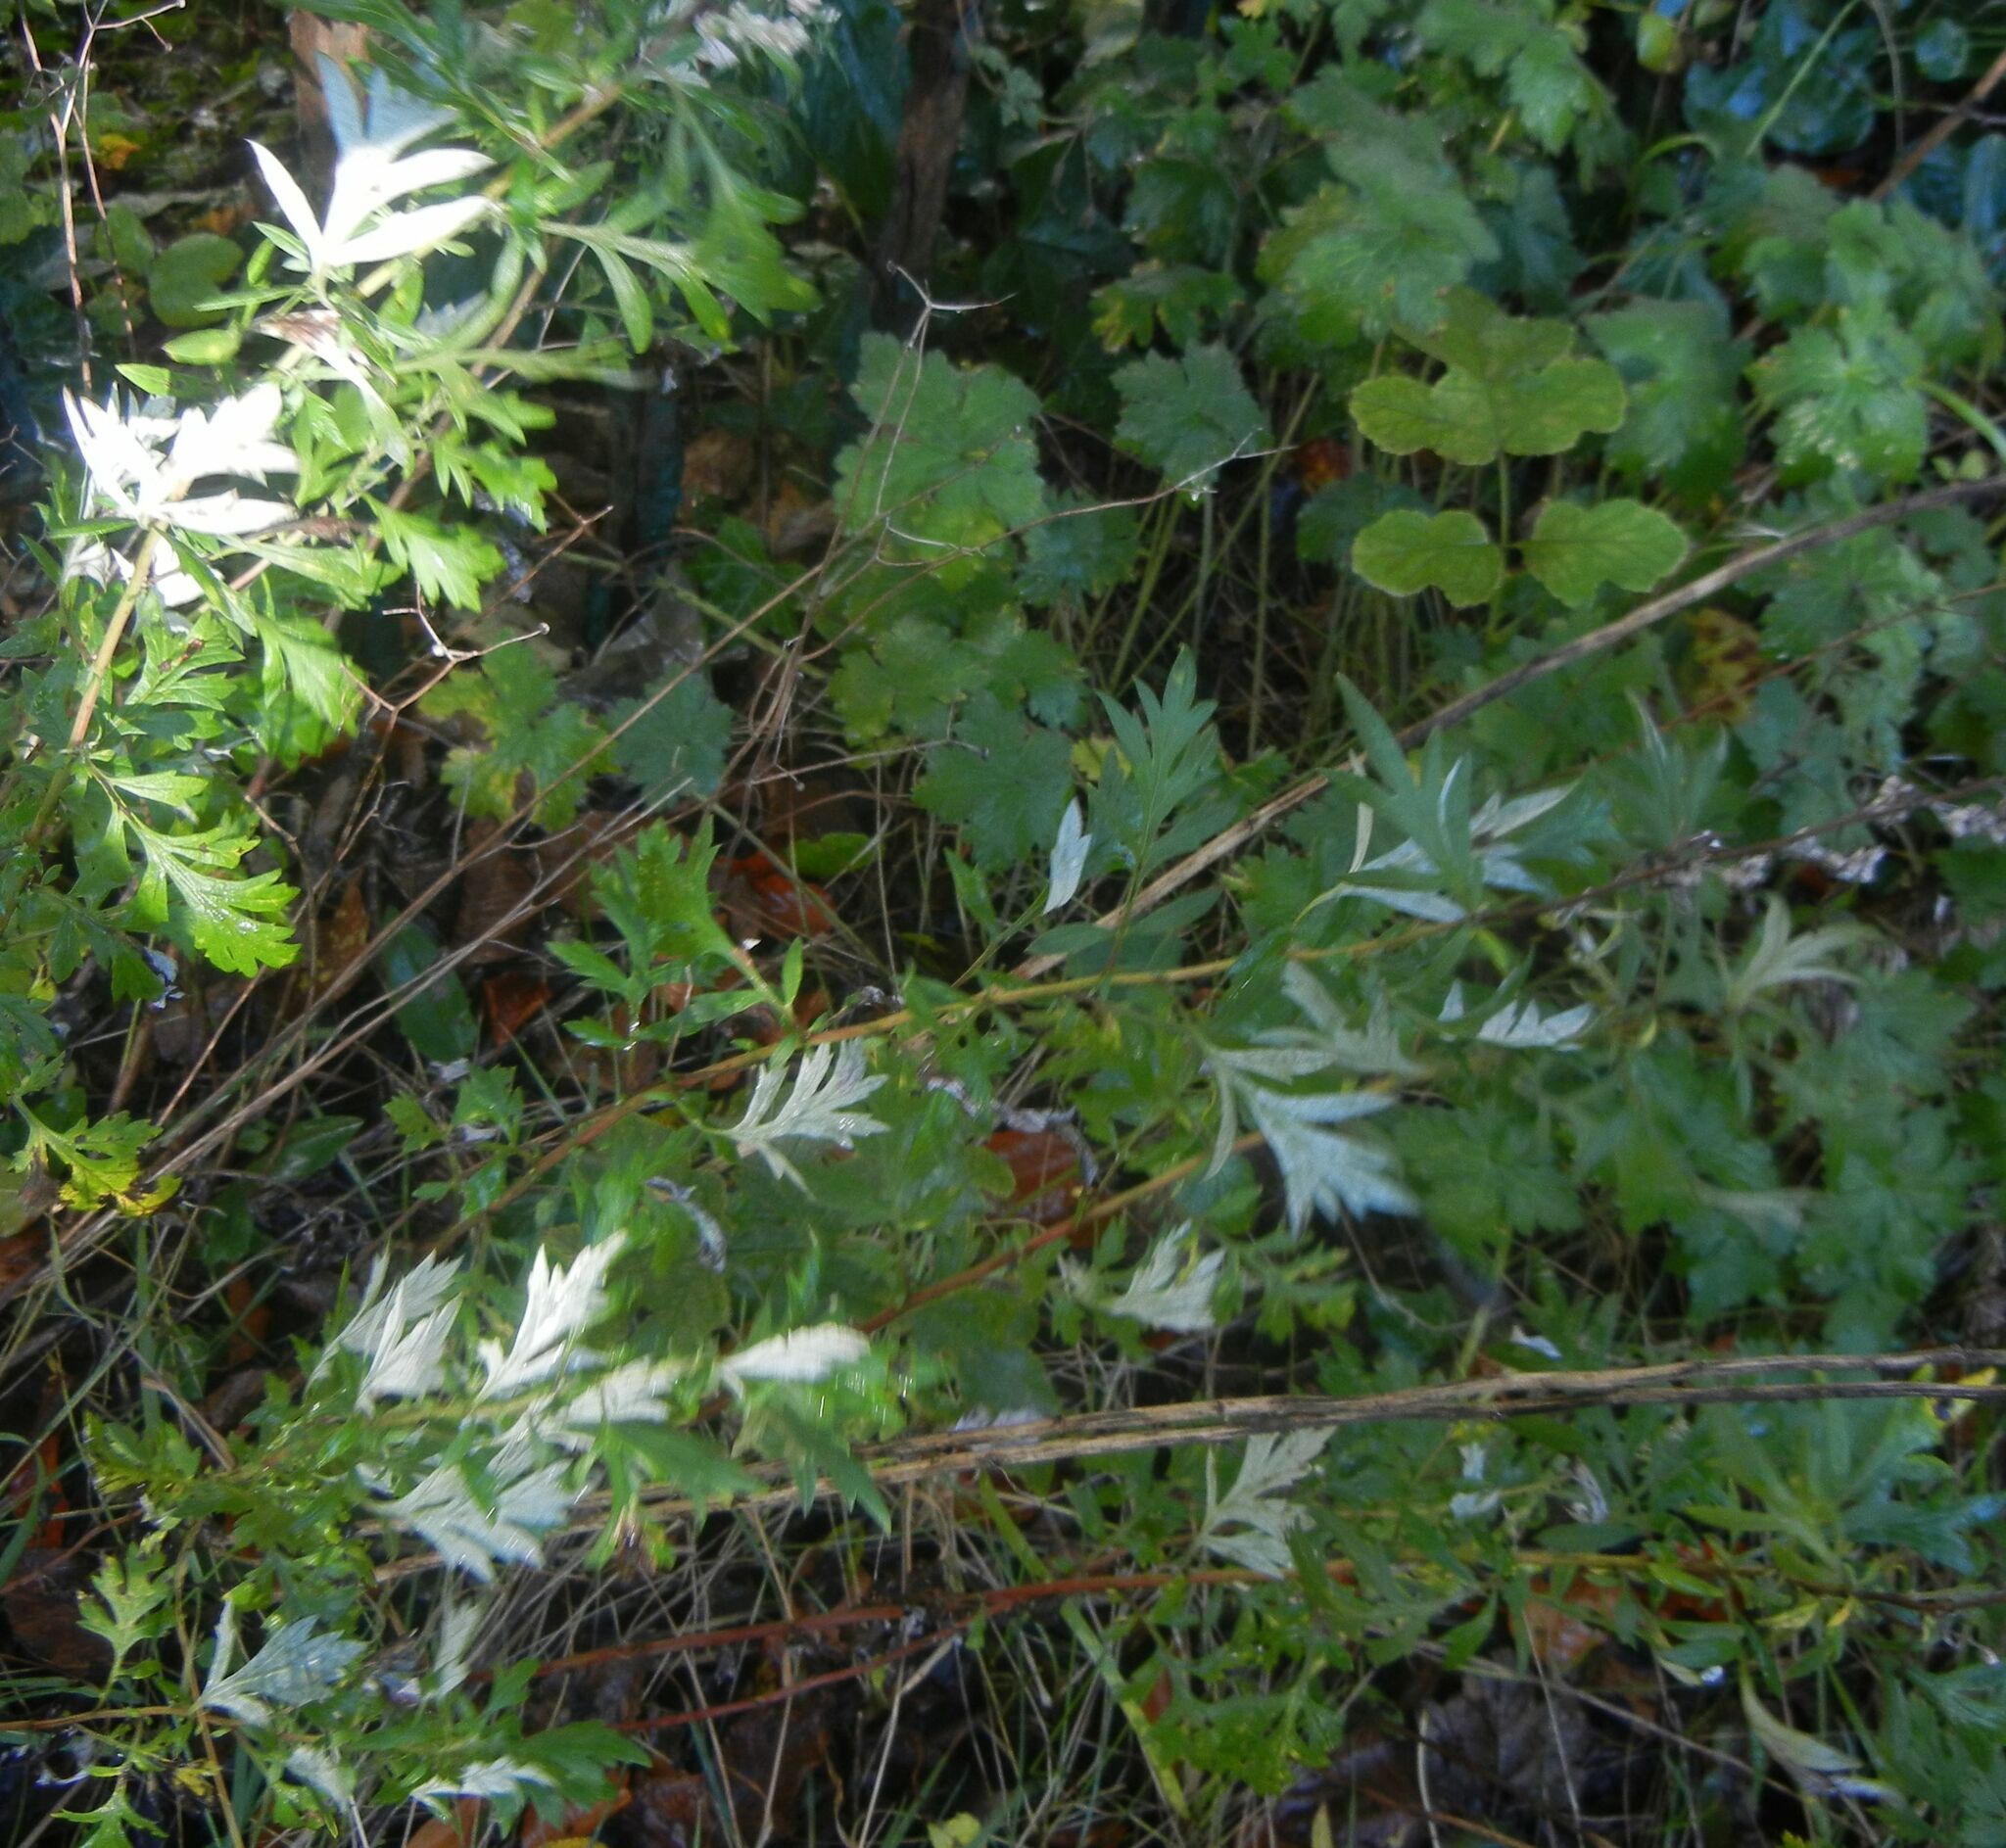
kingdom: Plantae
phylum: Tracheophyta
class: Magnoliopsida
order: Asterales
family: Asteraceae
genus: Artemisia
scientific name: Artemisia vulgaris
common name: Mugwort
